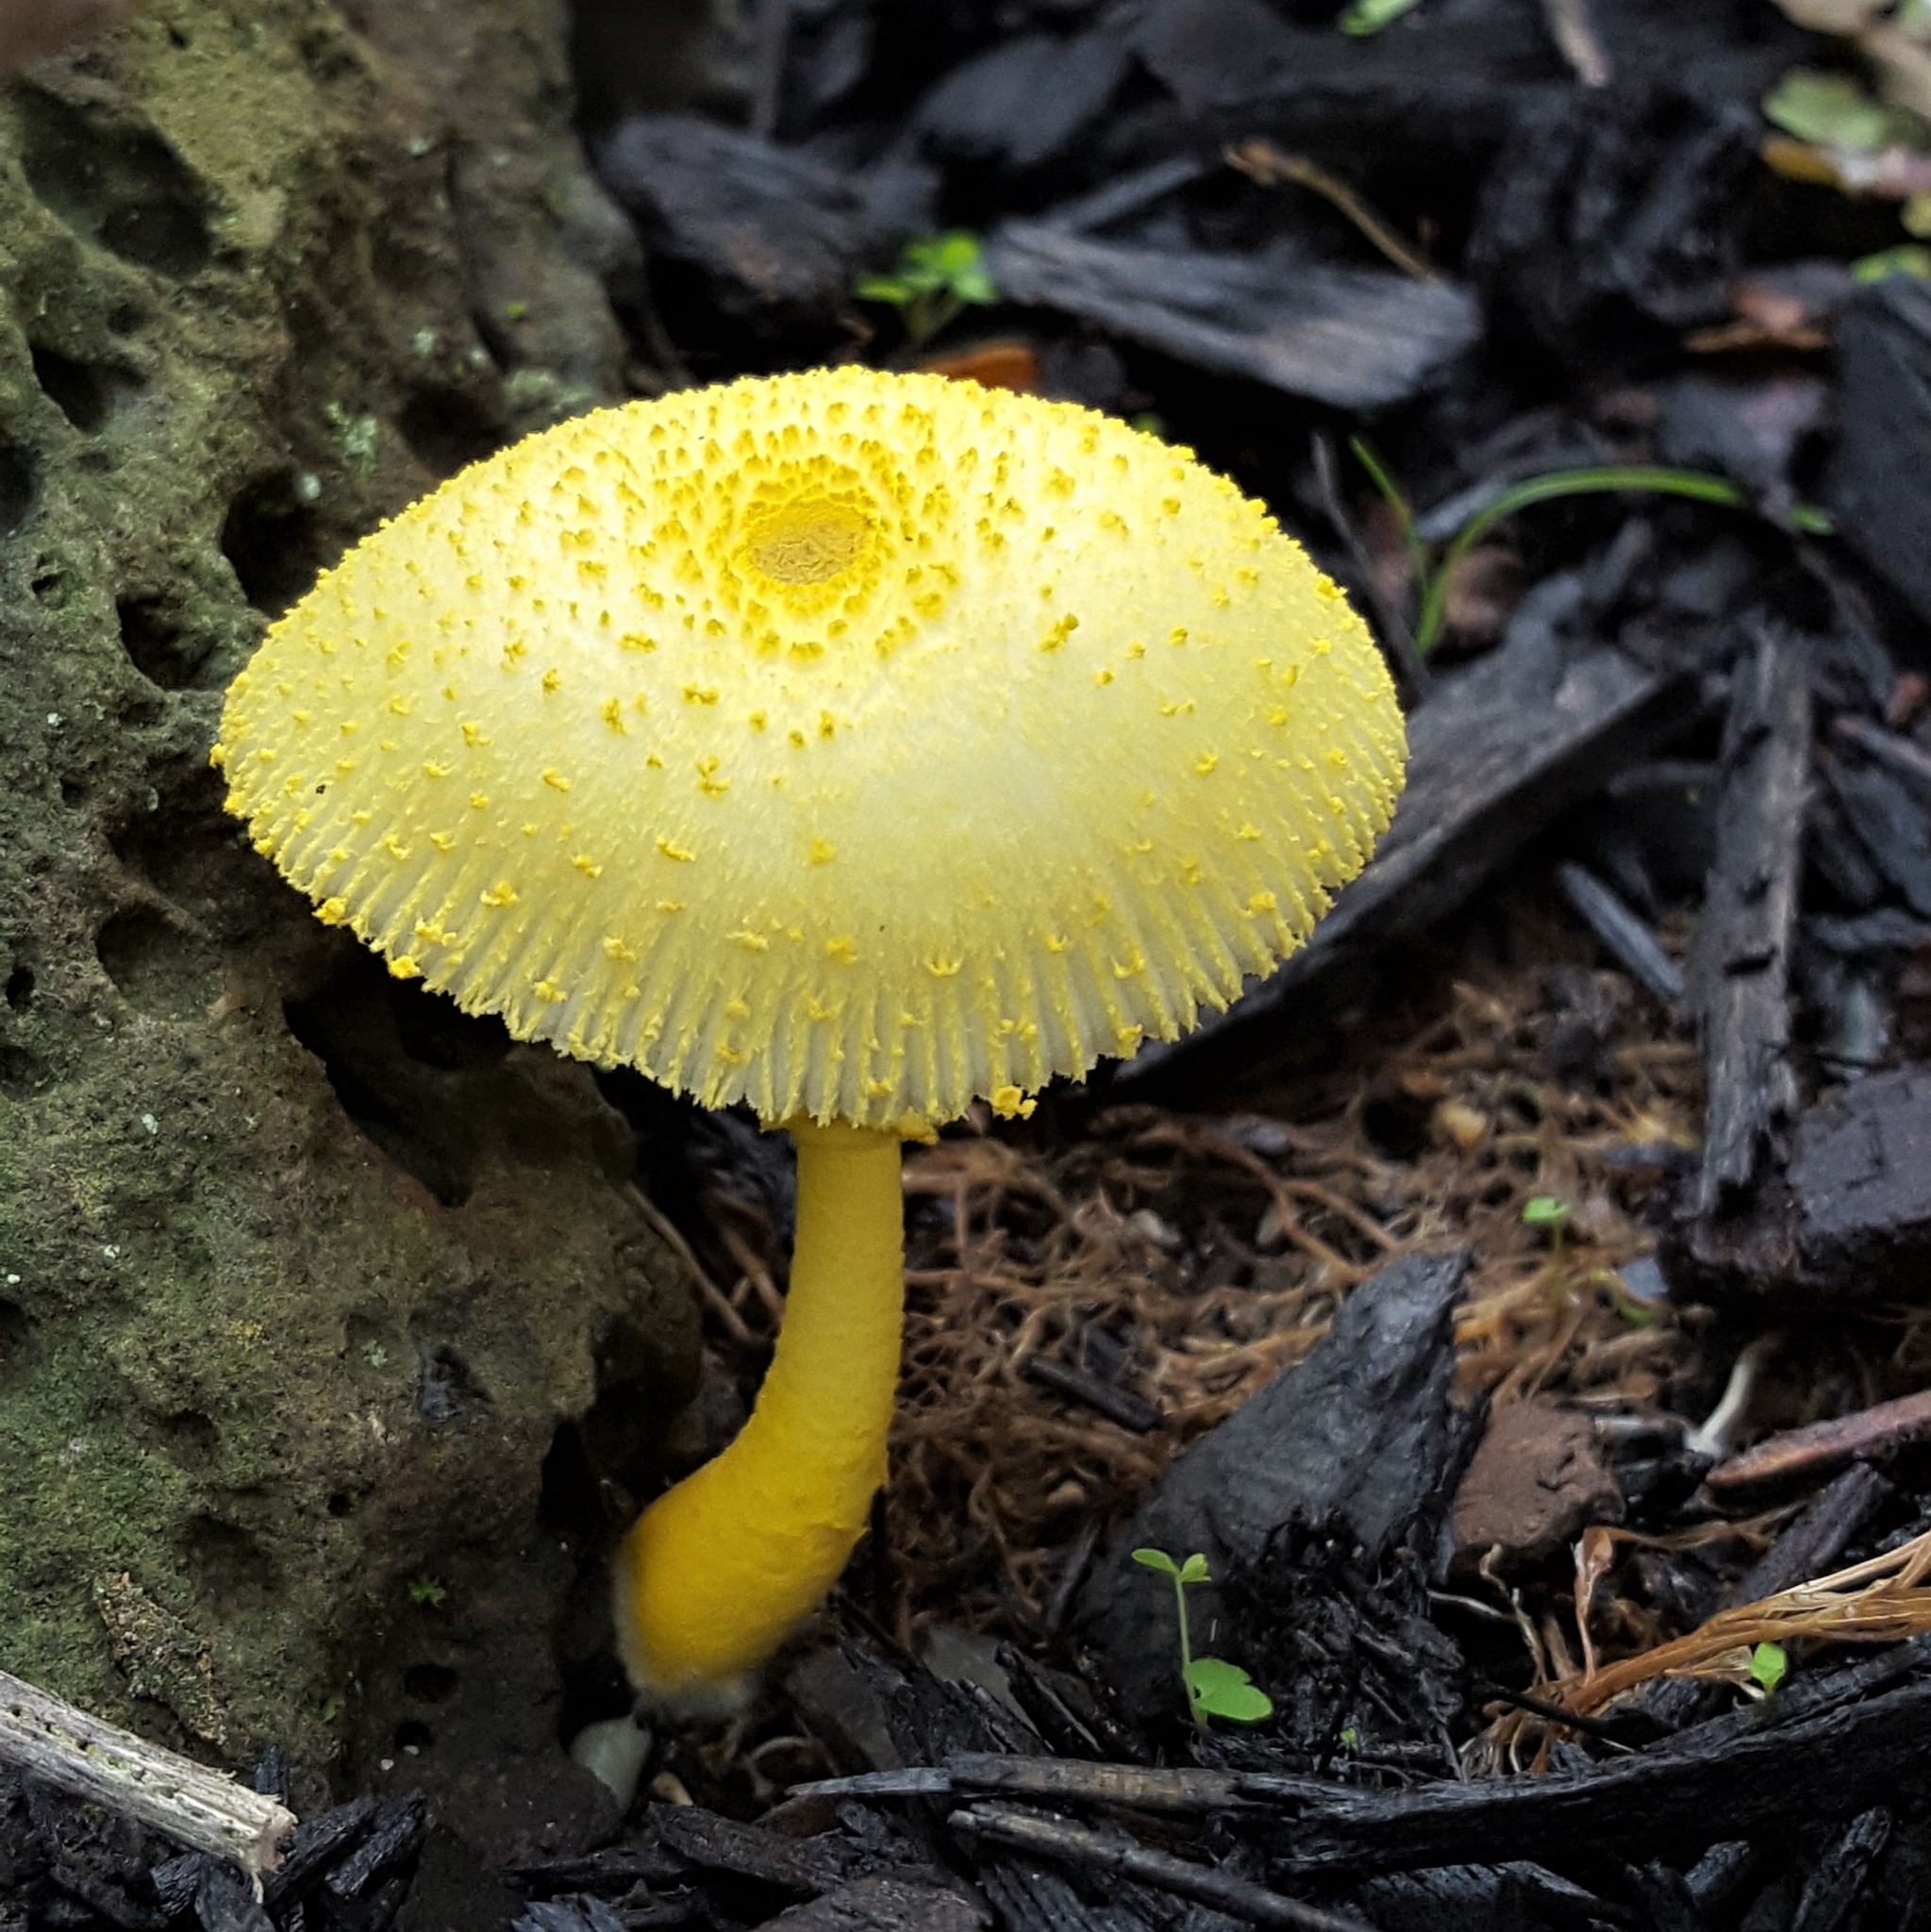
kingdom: Fungi
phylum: Basidiomycota
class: Agaricomycetes
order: Agaricales
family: Agaricaceae
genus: Leucocoprinus
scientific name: Leucocoprinus straminellus
